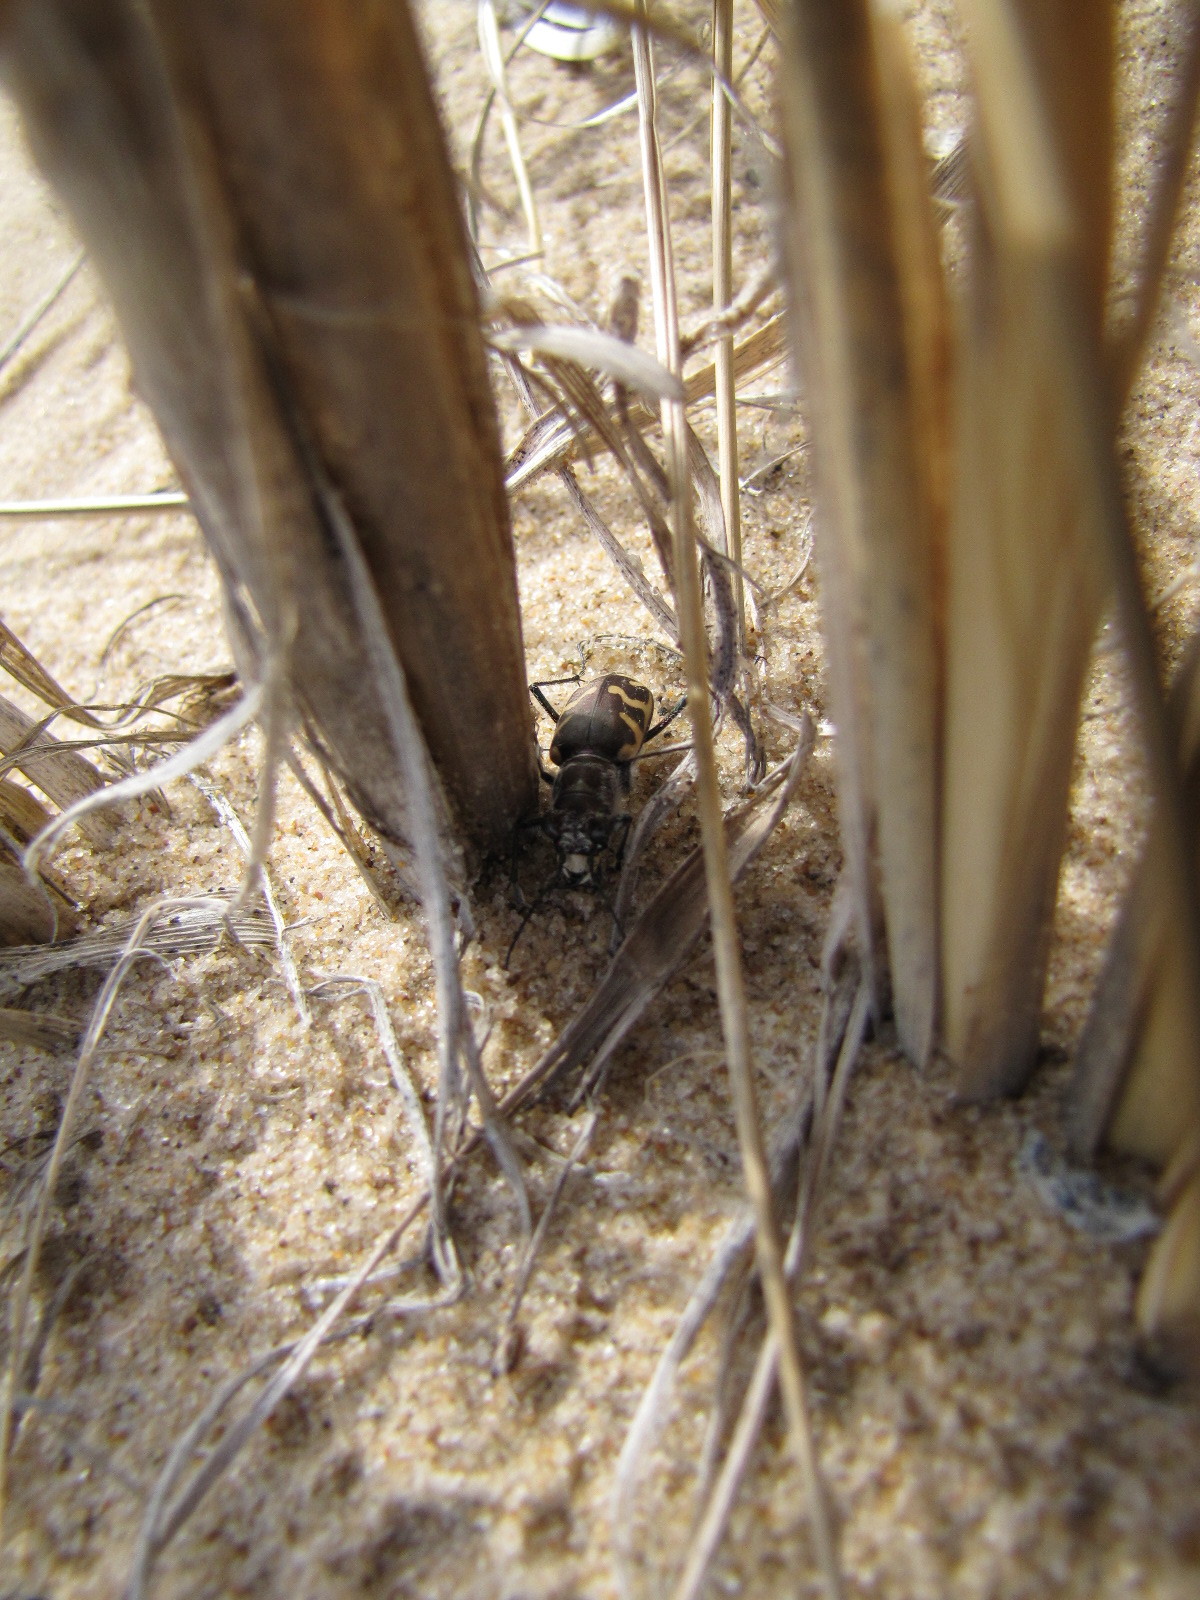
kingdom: Animalia
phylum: Arthropoda
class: Insecta
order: Coleoptera
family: Carabidae
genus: Cicindela
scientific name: Cicindela formosa
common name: Big sand tiger beetle
